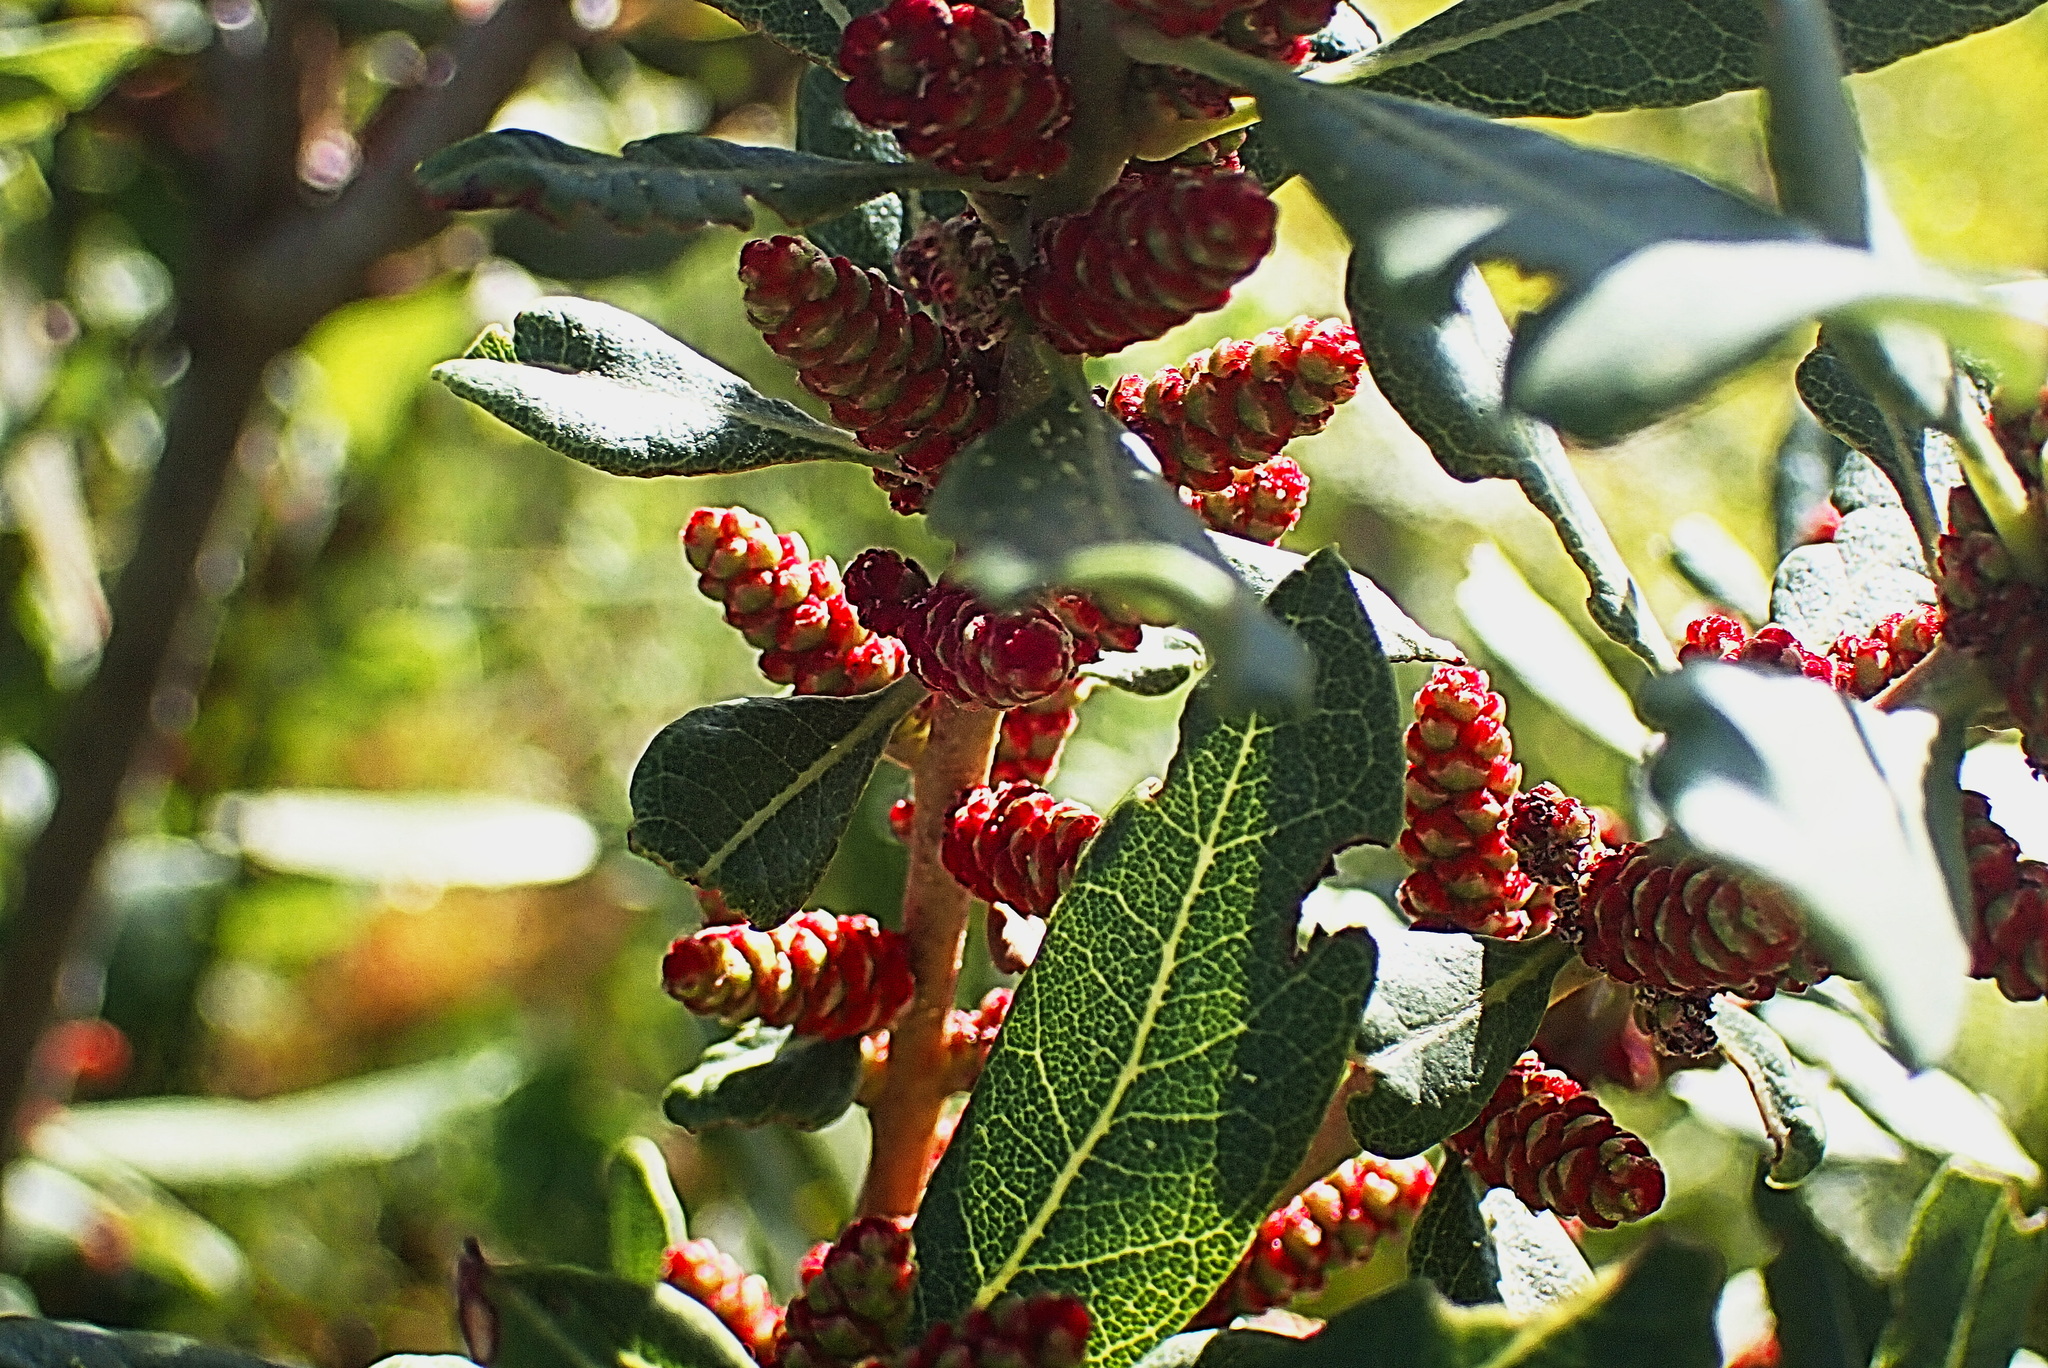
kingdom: Plantae
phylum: Tracheophyta
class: Magnoliopsida
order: Fagales
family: Myricaceae
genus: Morella
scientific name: Morella humilis
